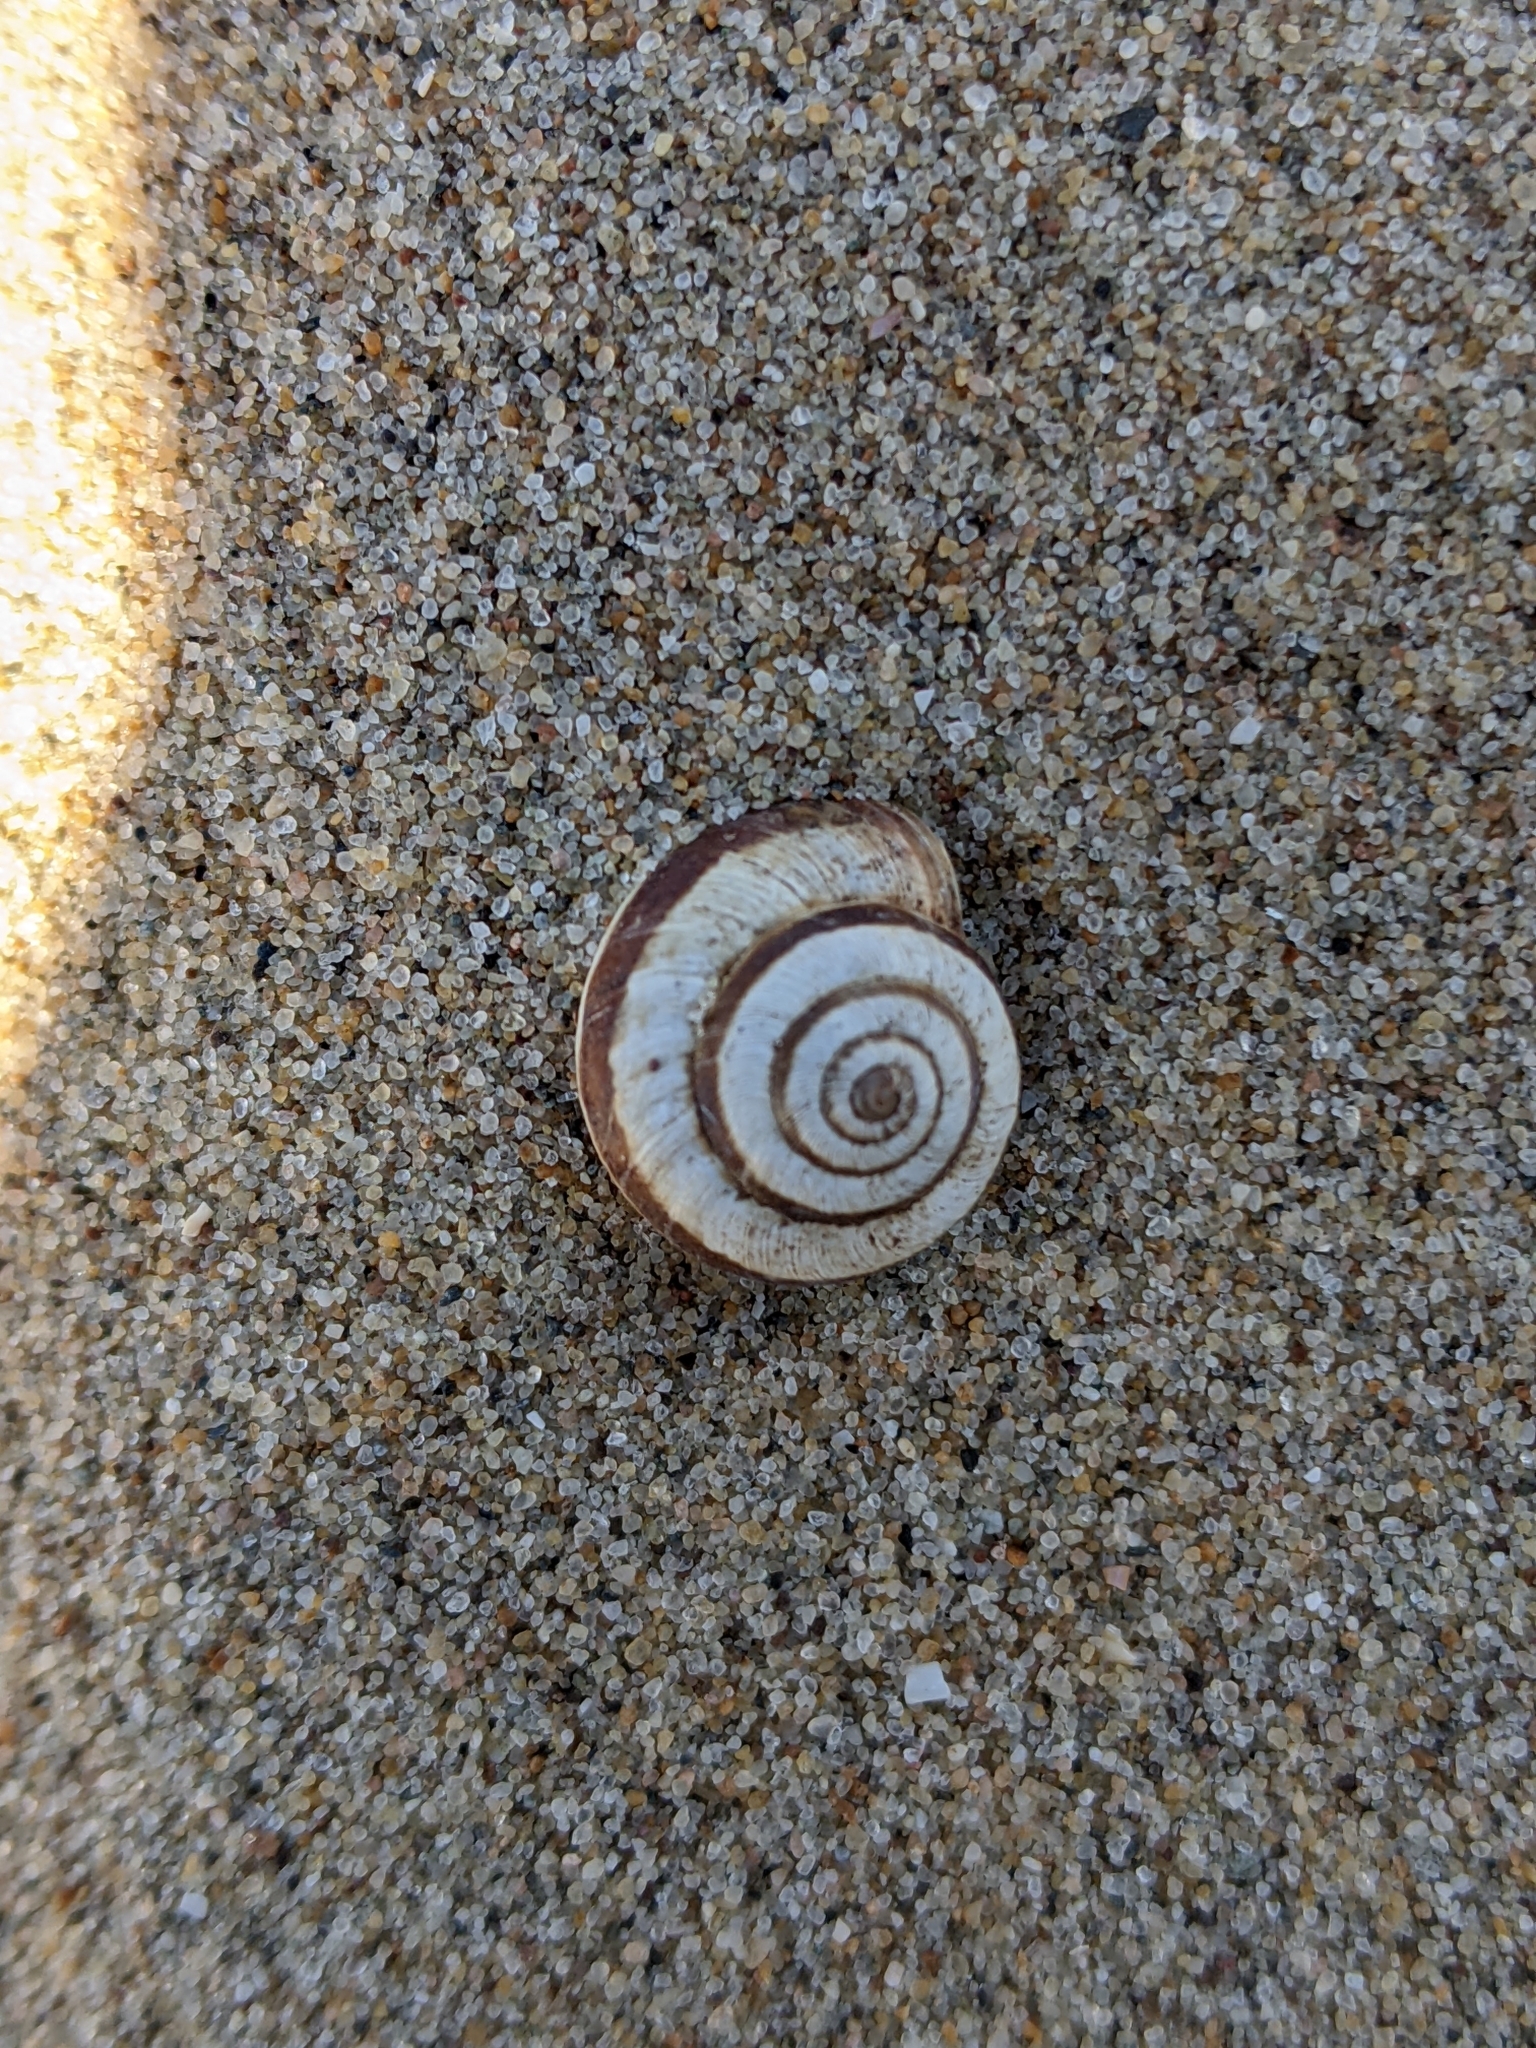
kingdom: Animalia
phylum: Mollusca
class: Gastropoda
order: Stylommatophora
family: Geomitridae
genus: Cernuella
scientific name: Cernuella virgata
